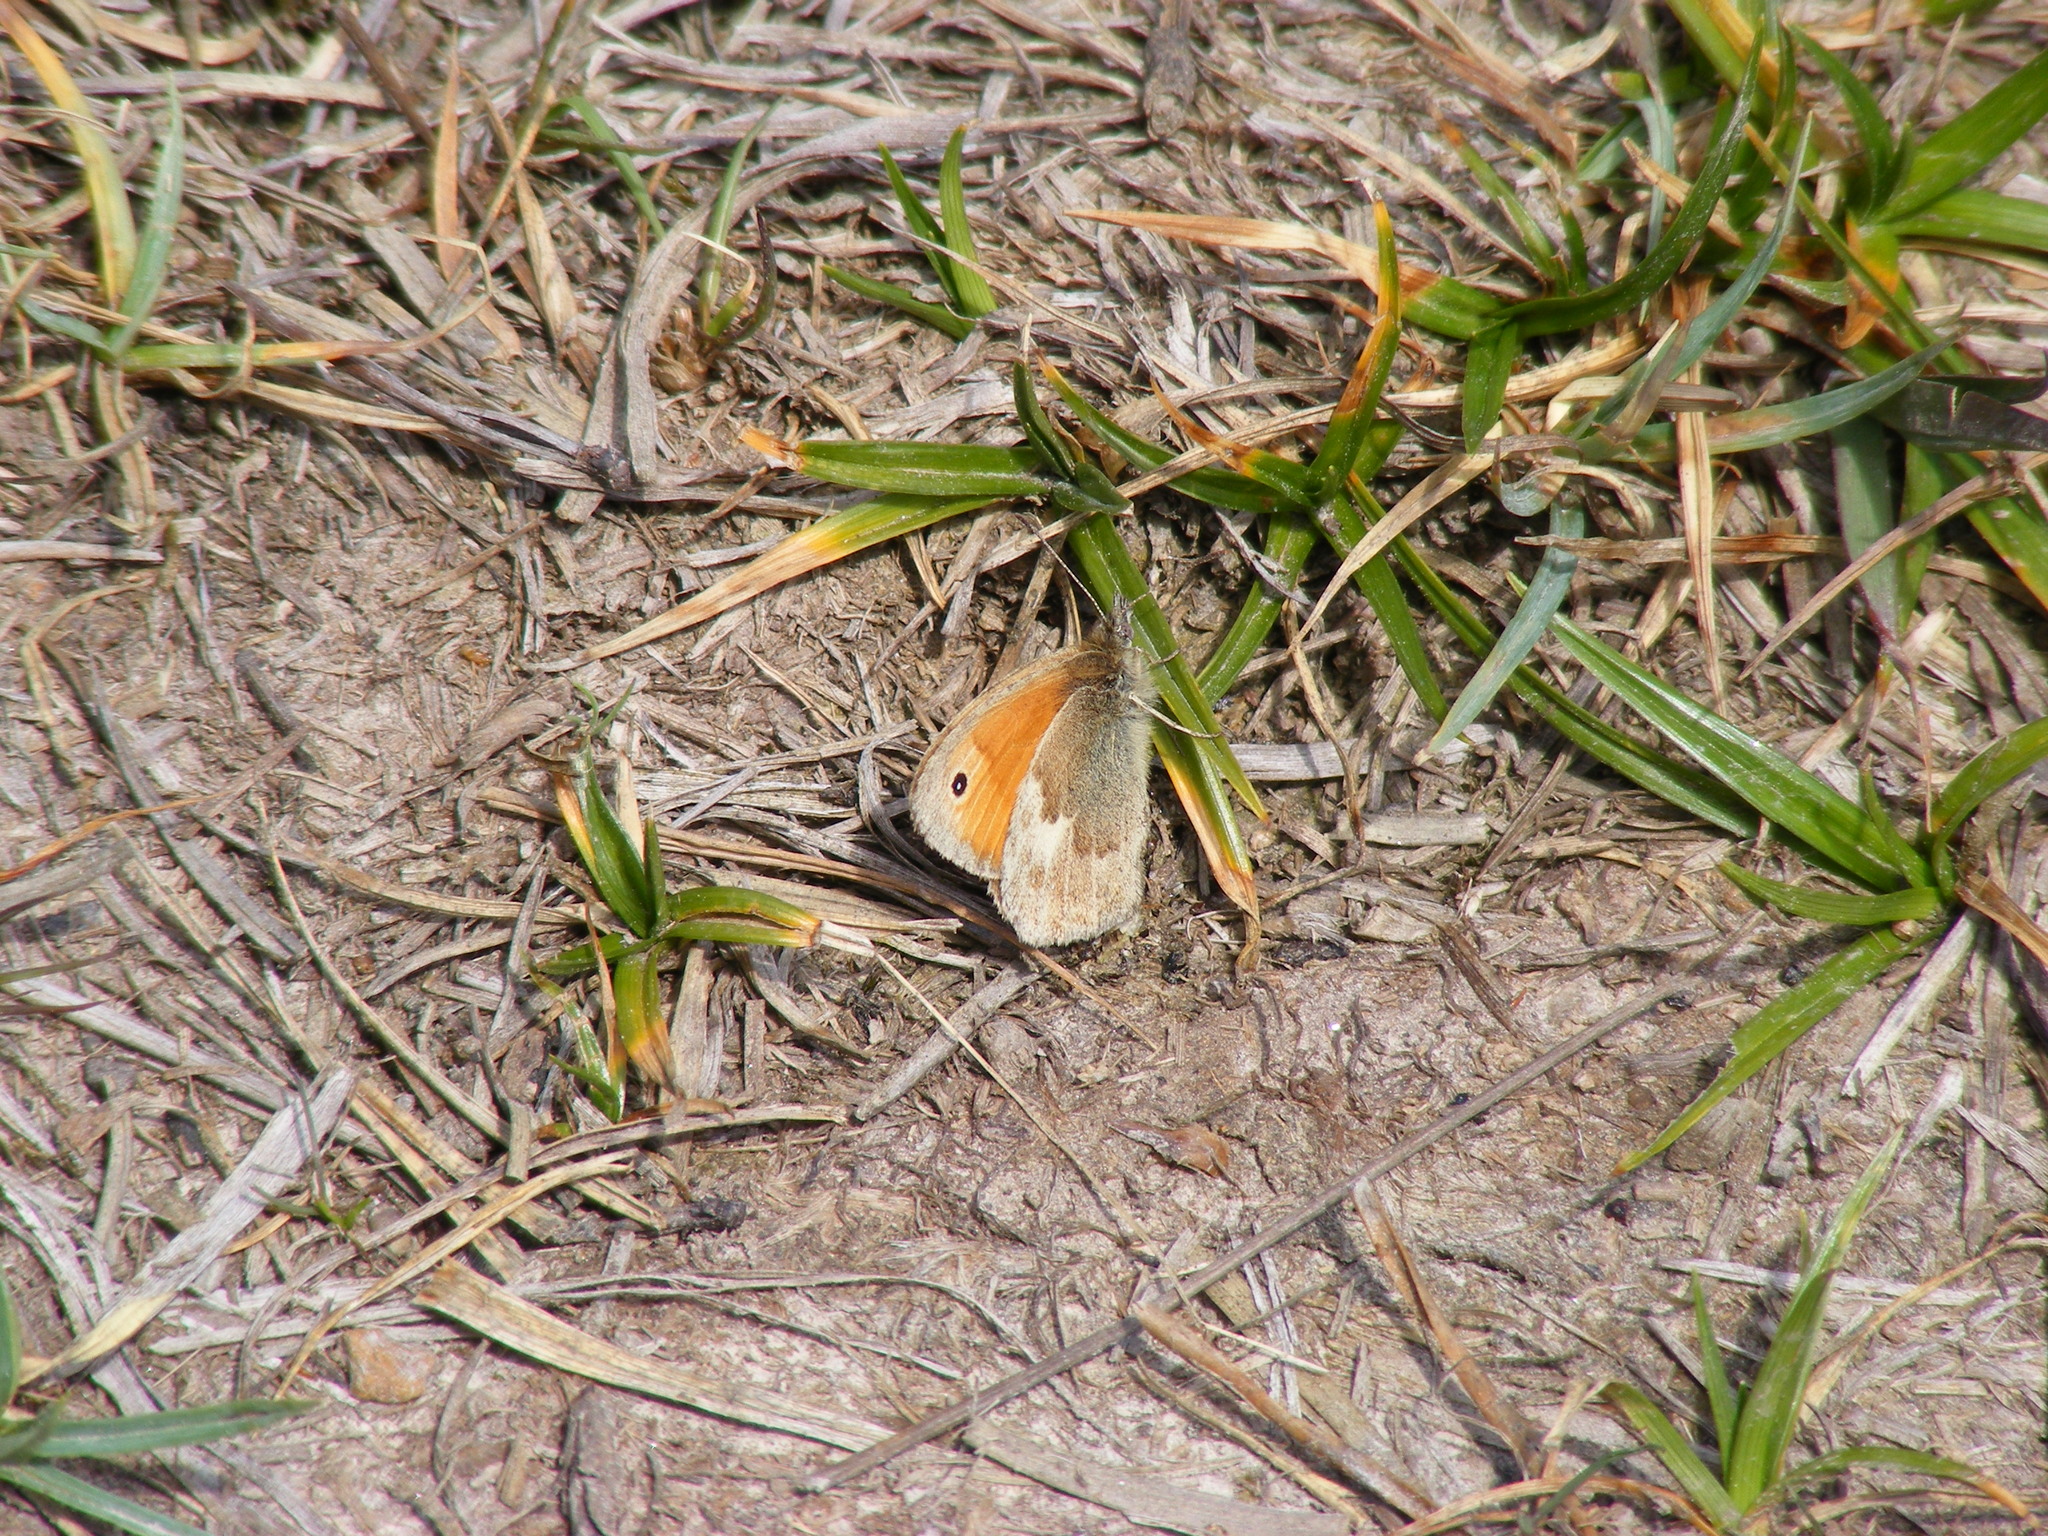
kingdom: Animalia
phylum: Arthropoda
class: Insecta
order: Lepidoptera
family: Nymphalidae
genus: Coenonympha
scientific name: Coenonympha pamphilus
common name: Small heath
